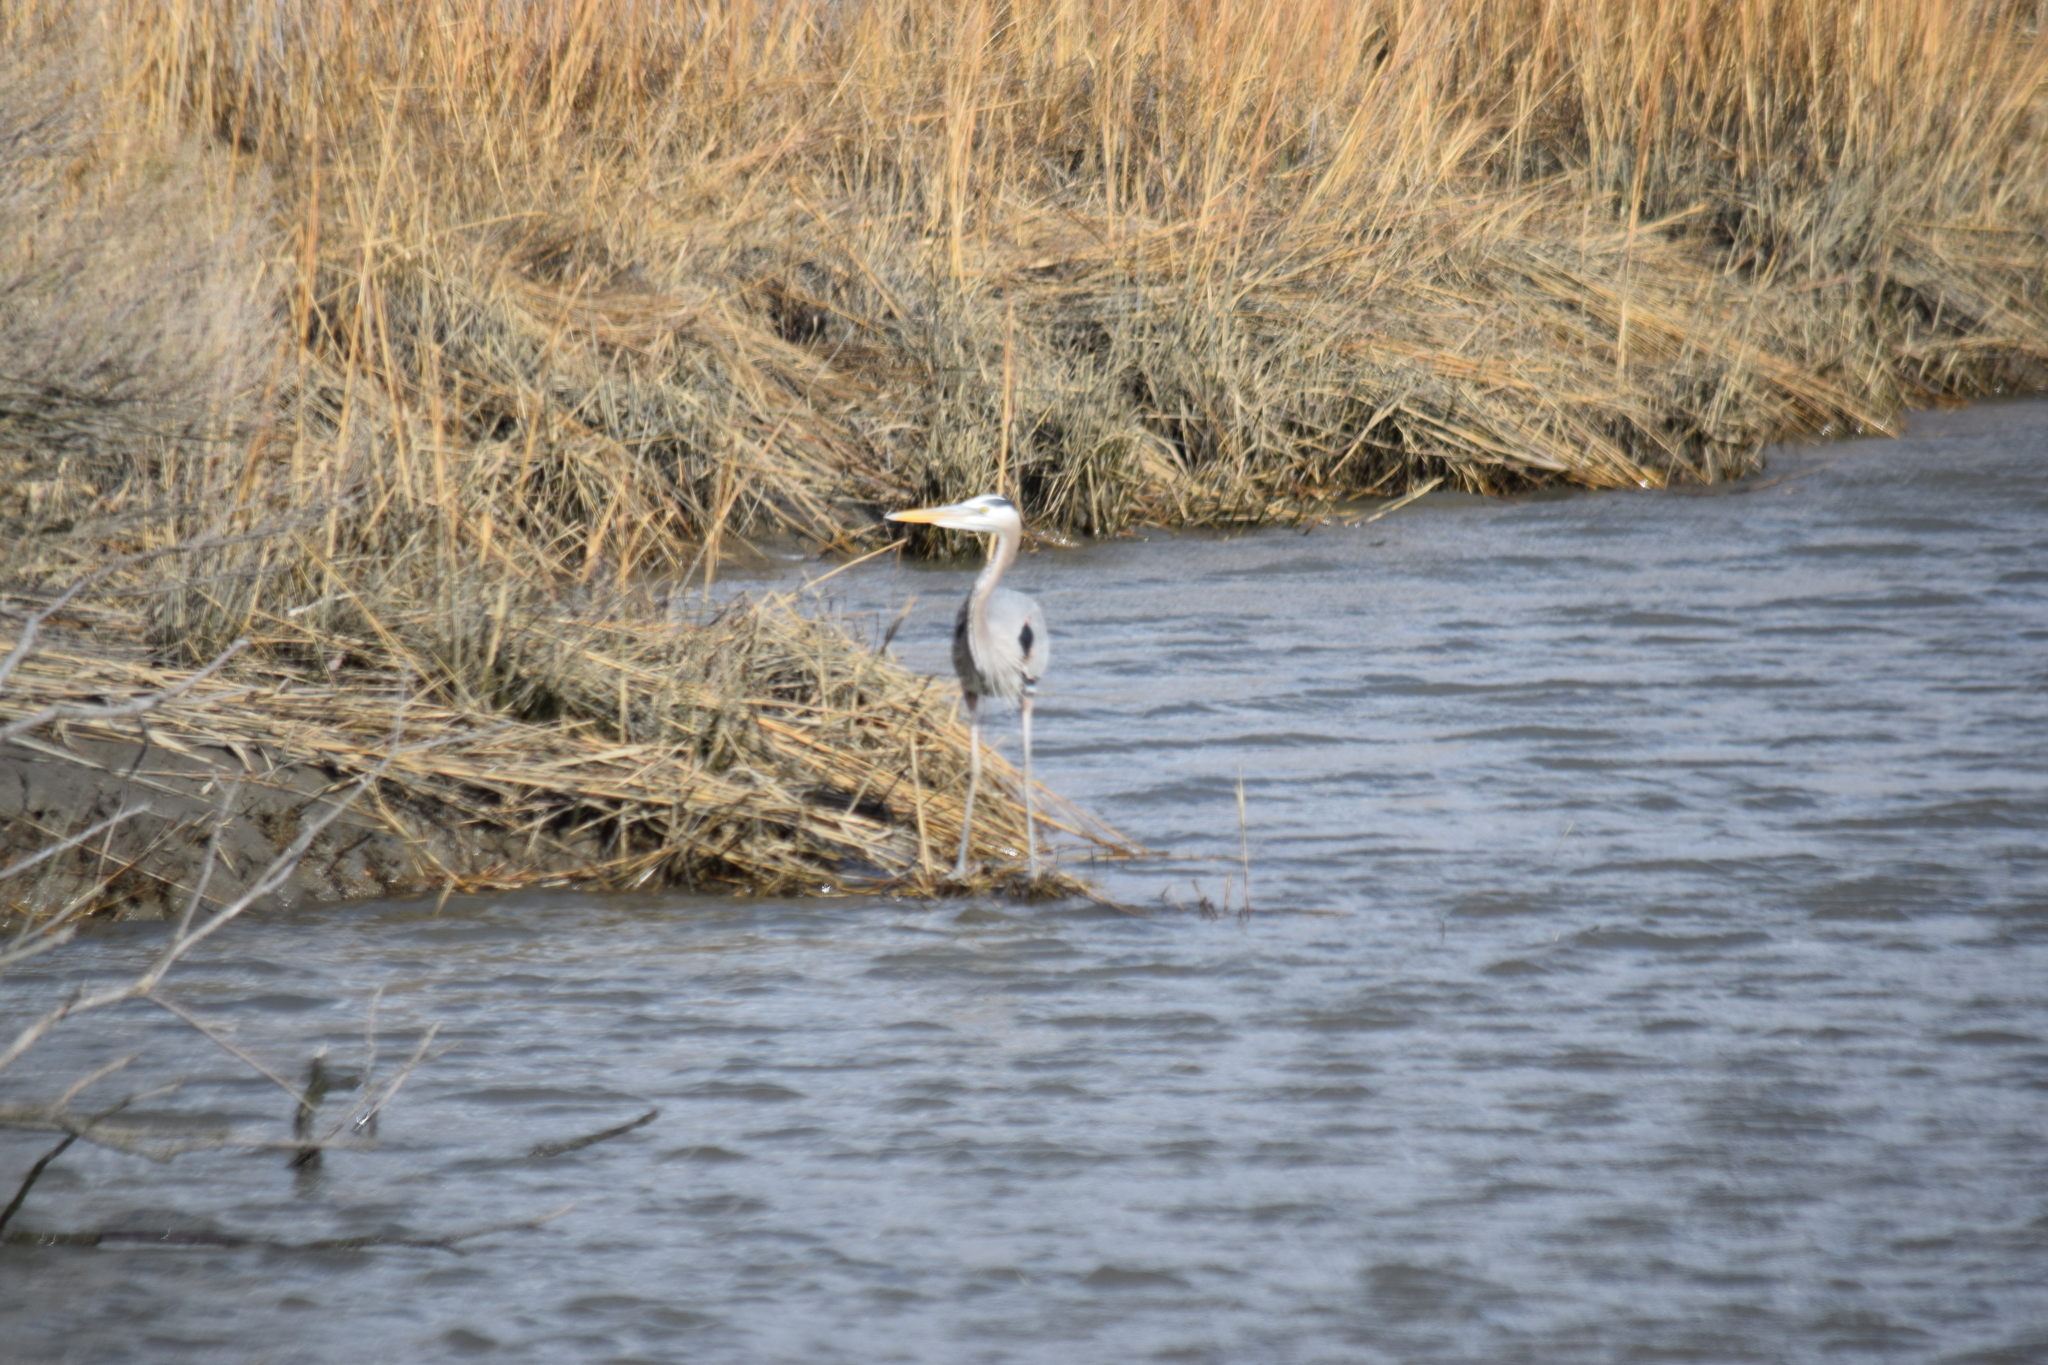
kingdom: Animalia
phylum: Chordata
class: Aves
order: Pelecaniformes
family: Ardeidae
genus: Ardea
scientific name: Ardea herodias
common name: Great blue heron
